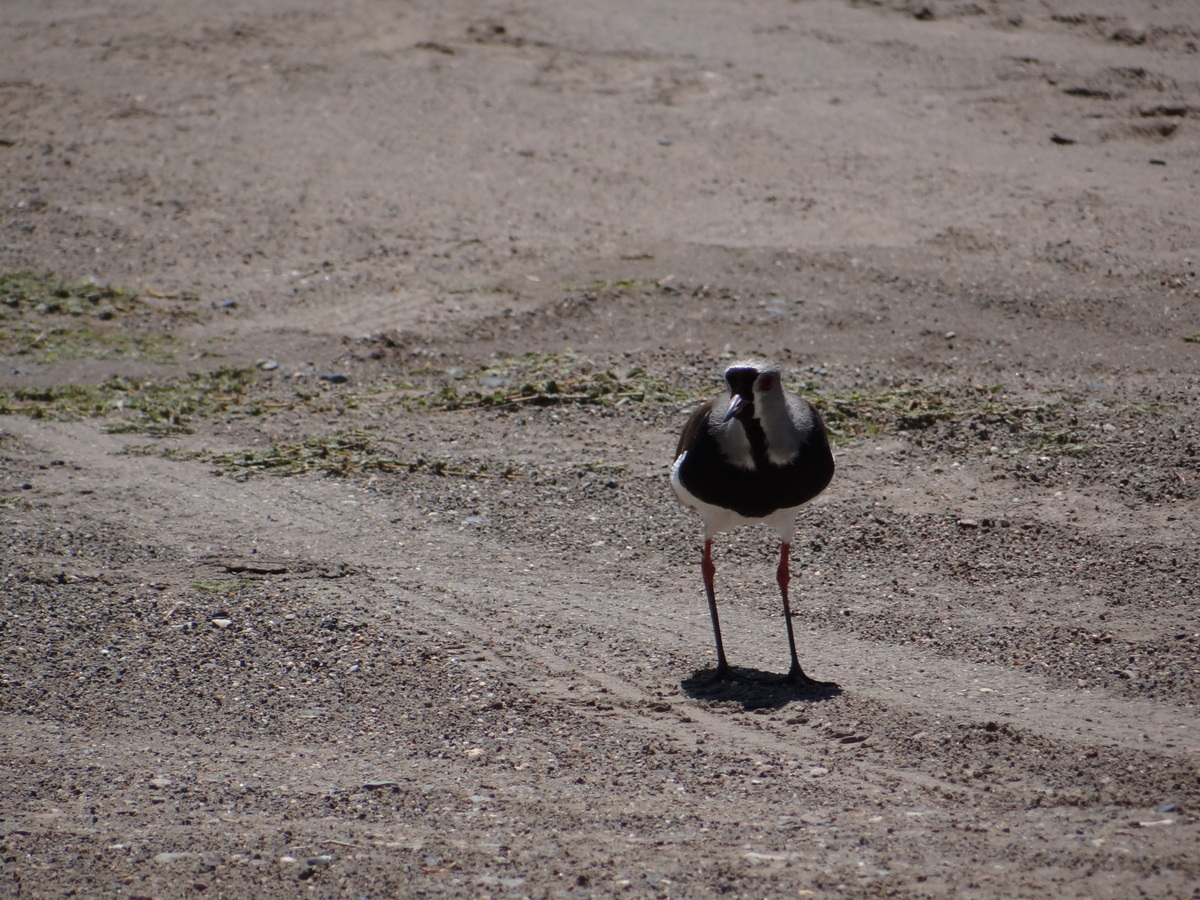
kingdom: Animalia
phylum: Chordata
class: Aves
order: Charadriiformes
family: Charadriidae
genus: Vanellus
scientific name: Vanellus chilensis
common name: Southern lapwing
